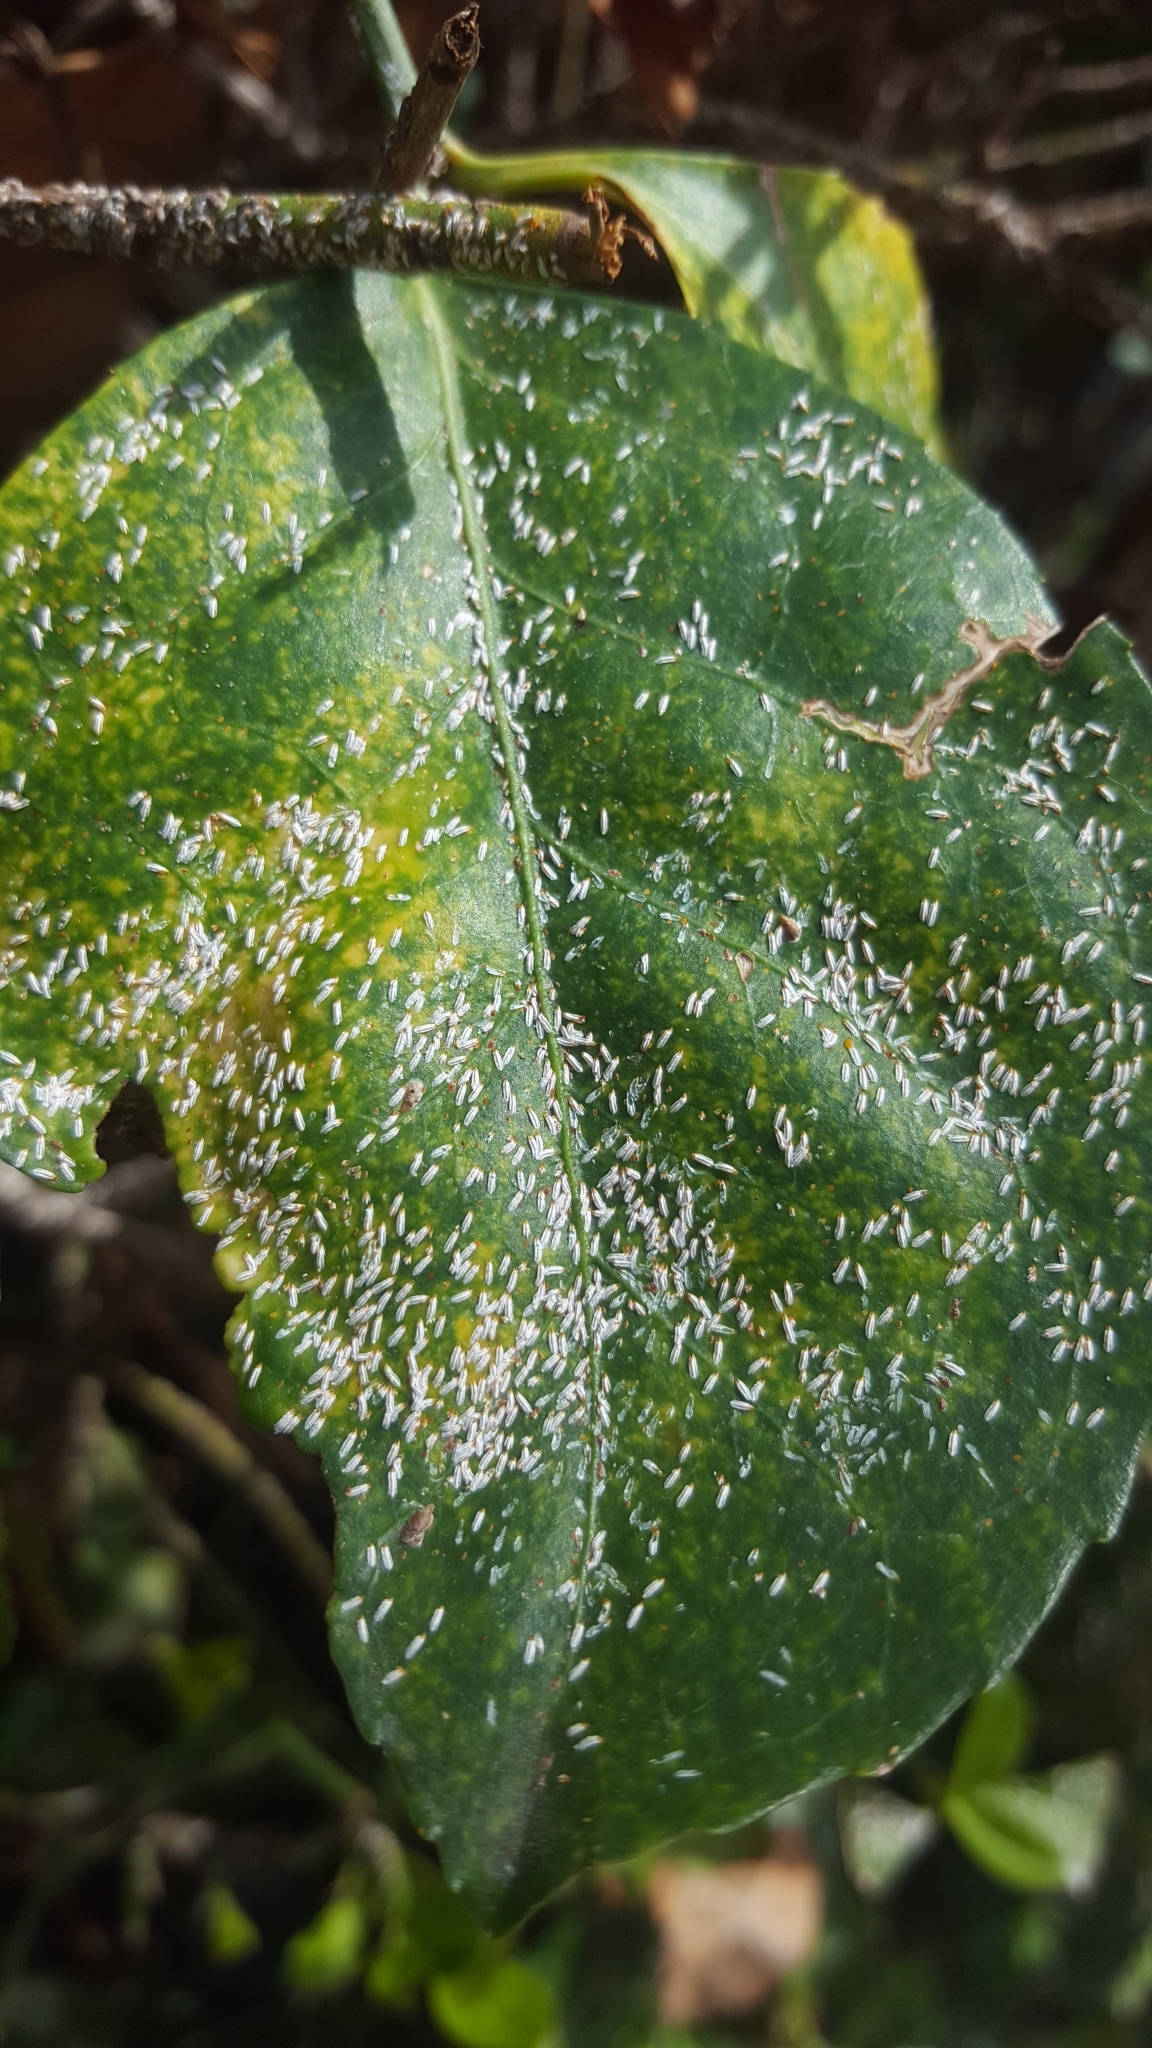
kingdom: Animalia
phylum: Arthropoda
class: Insecta
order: Hemiptera
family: Diaspididae
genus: Unaspis
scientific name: Unaspis euonymi
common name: Euonymus scale
